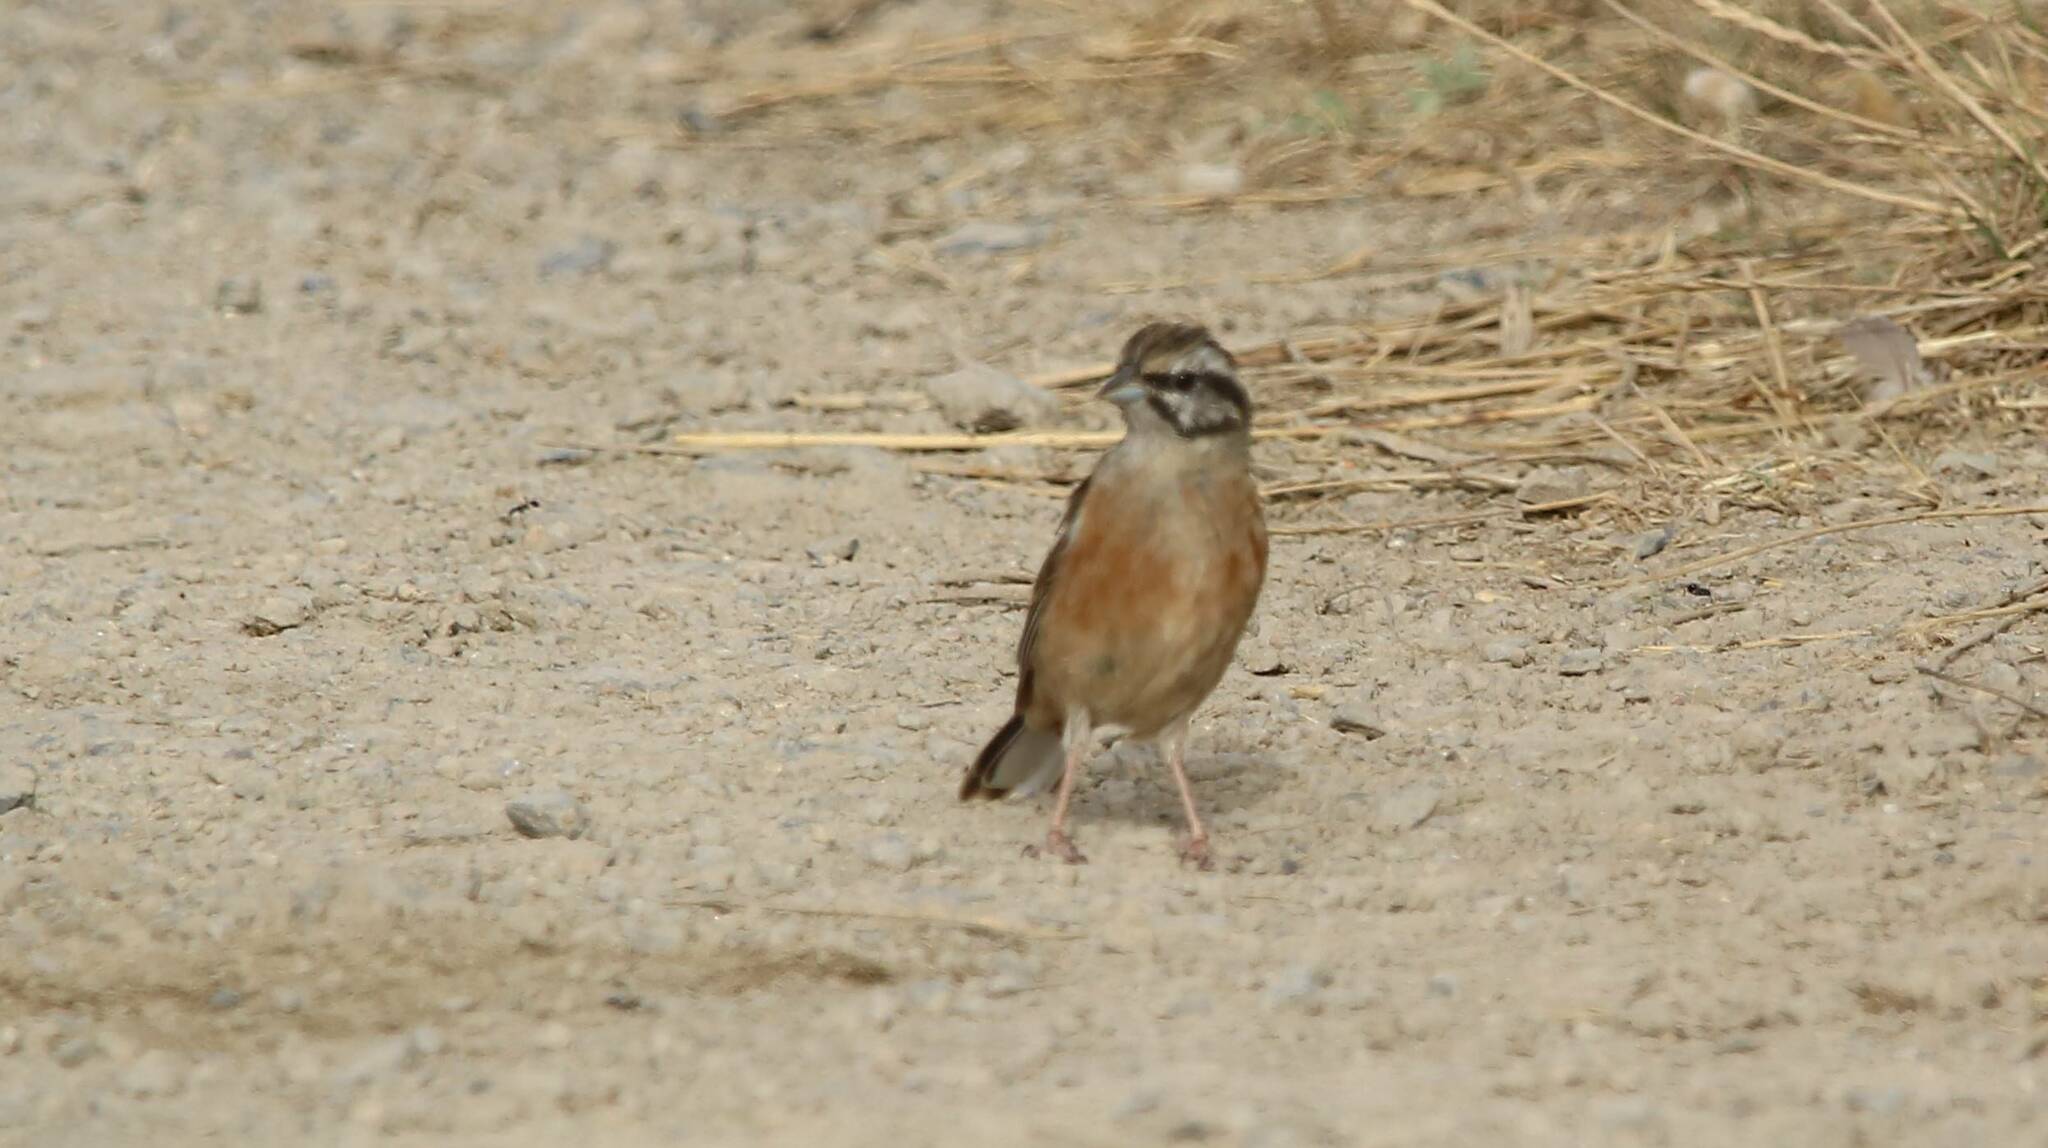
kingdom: Animalia
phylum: Chordata
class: Aves
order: Passeriformes
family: Emberizidae
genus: Emberiza
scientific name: Emberiza cia
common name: Rock bunting
